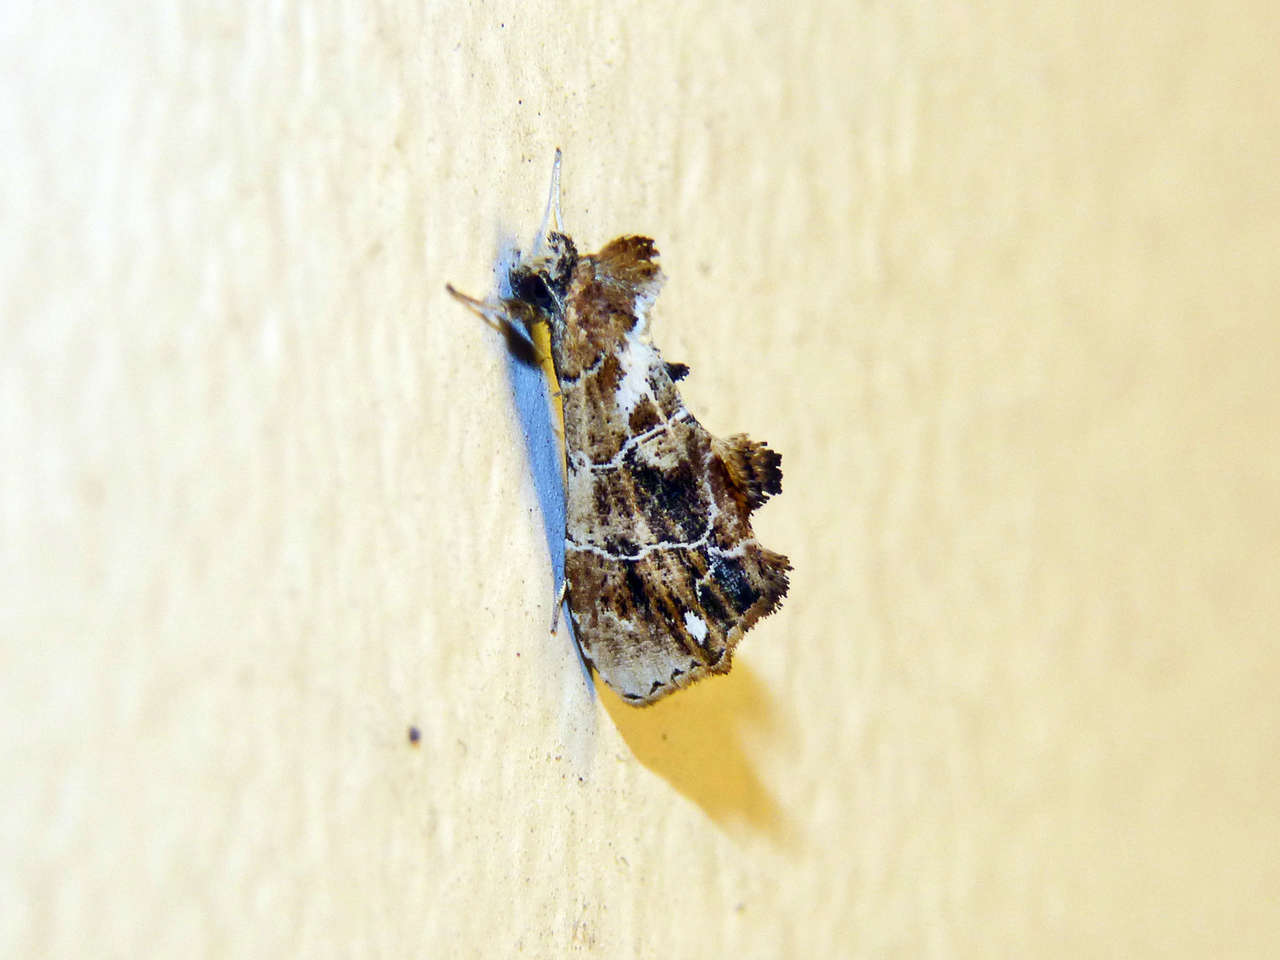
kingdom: Animalia
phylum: Arthropoda
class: Insecta
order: Lepidoptera
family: Erebidae
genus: Arrade
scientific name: Arrade leucocosmalis
